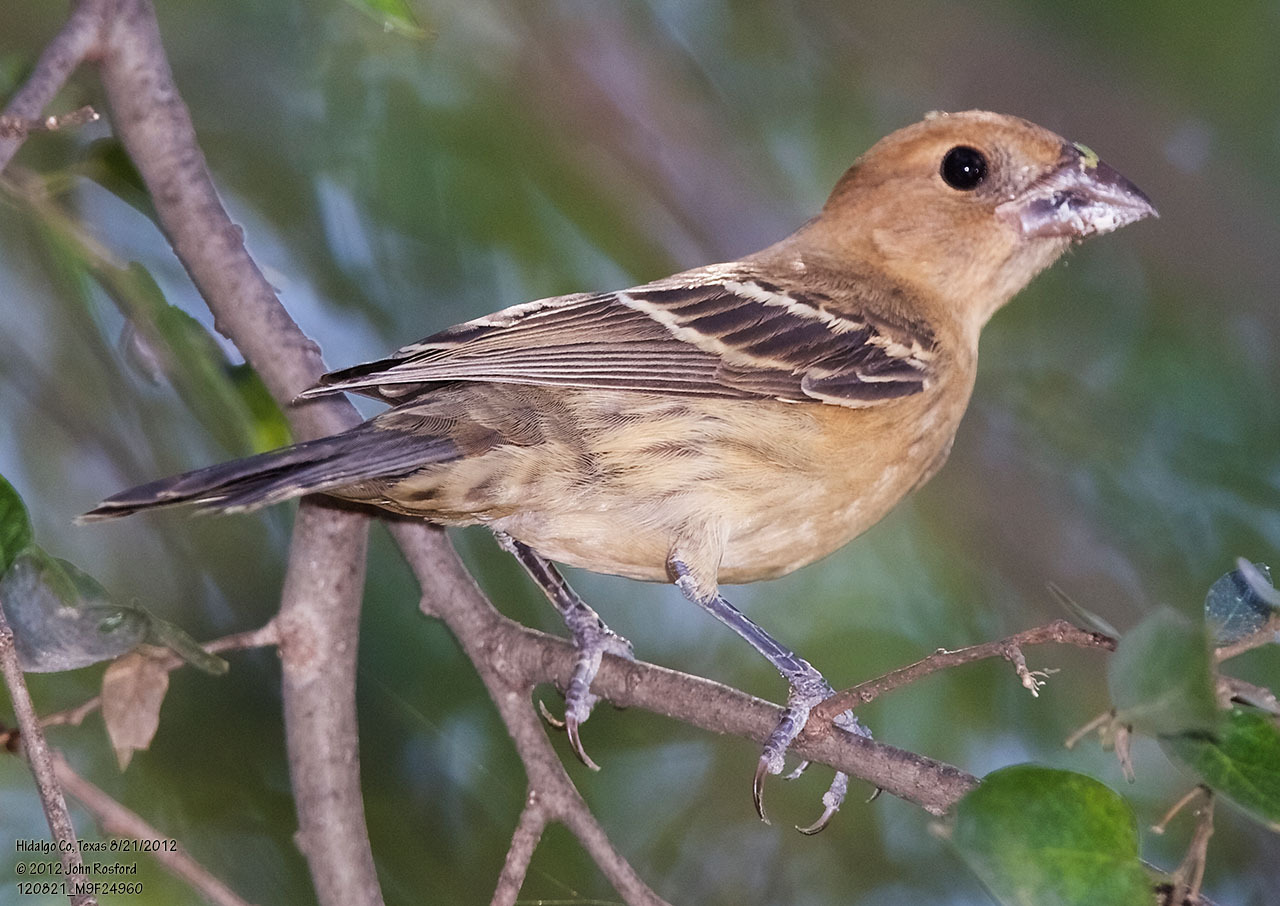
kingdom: Animalia
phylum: Chordata
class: Aves
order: Passeriformes
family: Cardinalidae
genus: Passerina
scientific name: Passerina caerulea
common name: Blue grosbeak
